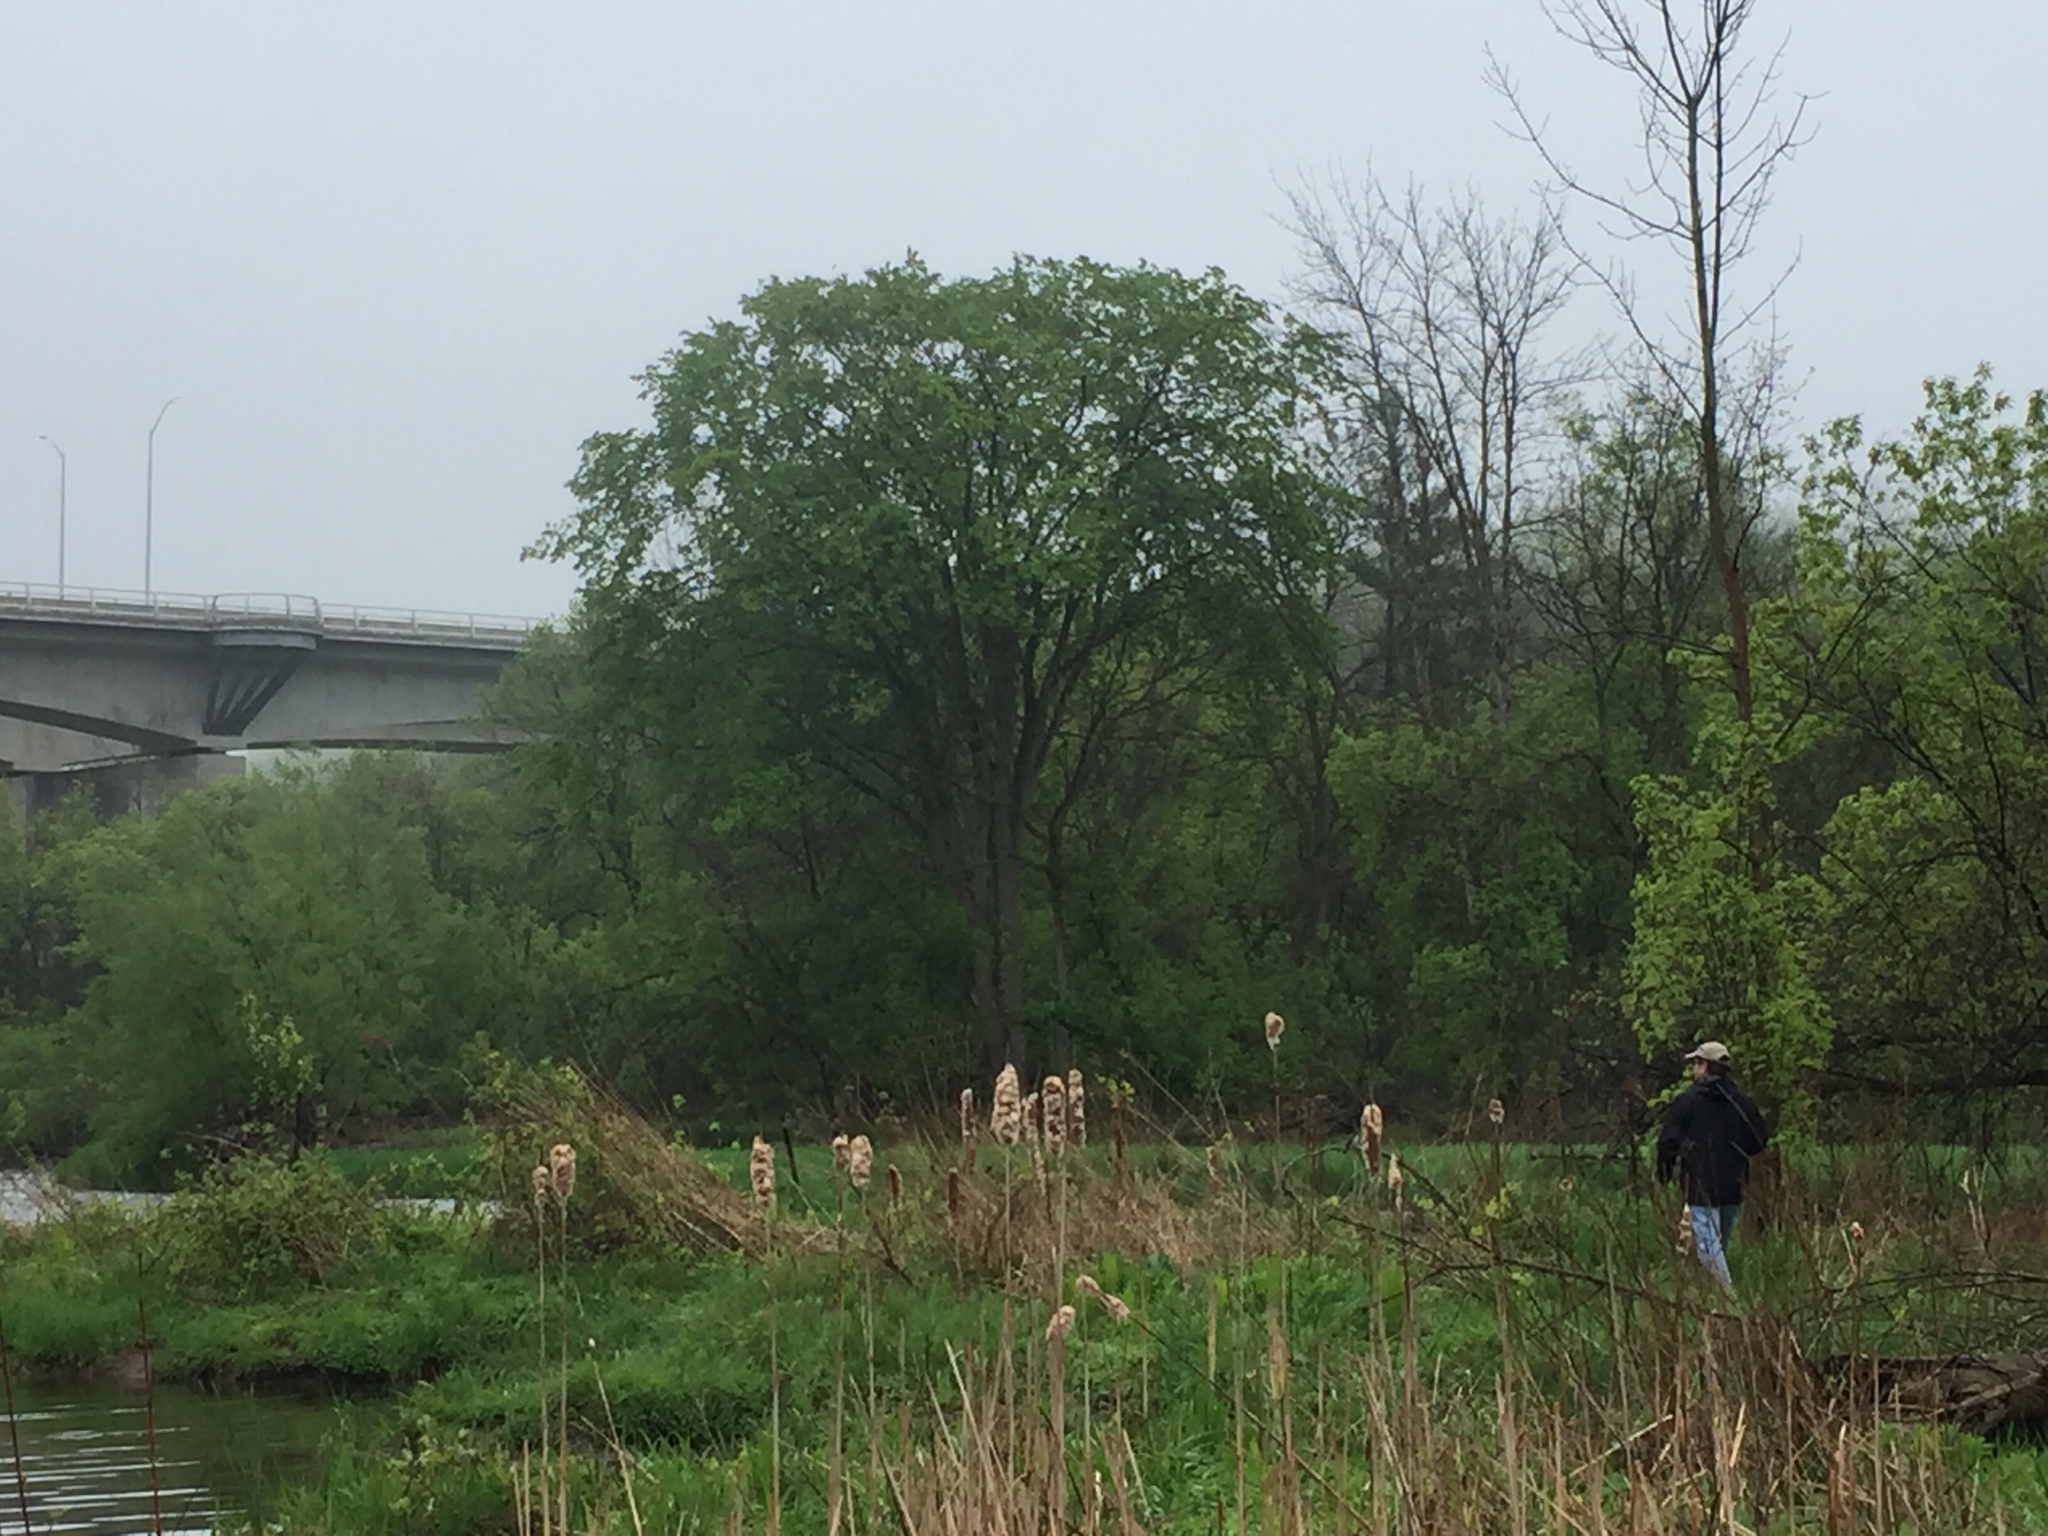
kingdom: Plantae
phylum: Tracheophyta
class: Magnoliopsida
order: Rosales
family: Ulmaceae
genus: Ulmus
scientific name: Ulmus americana
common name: American elm
